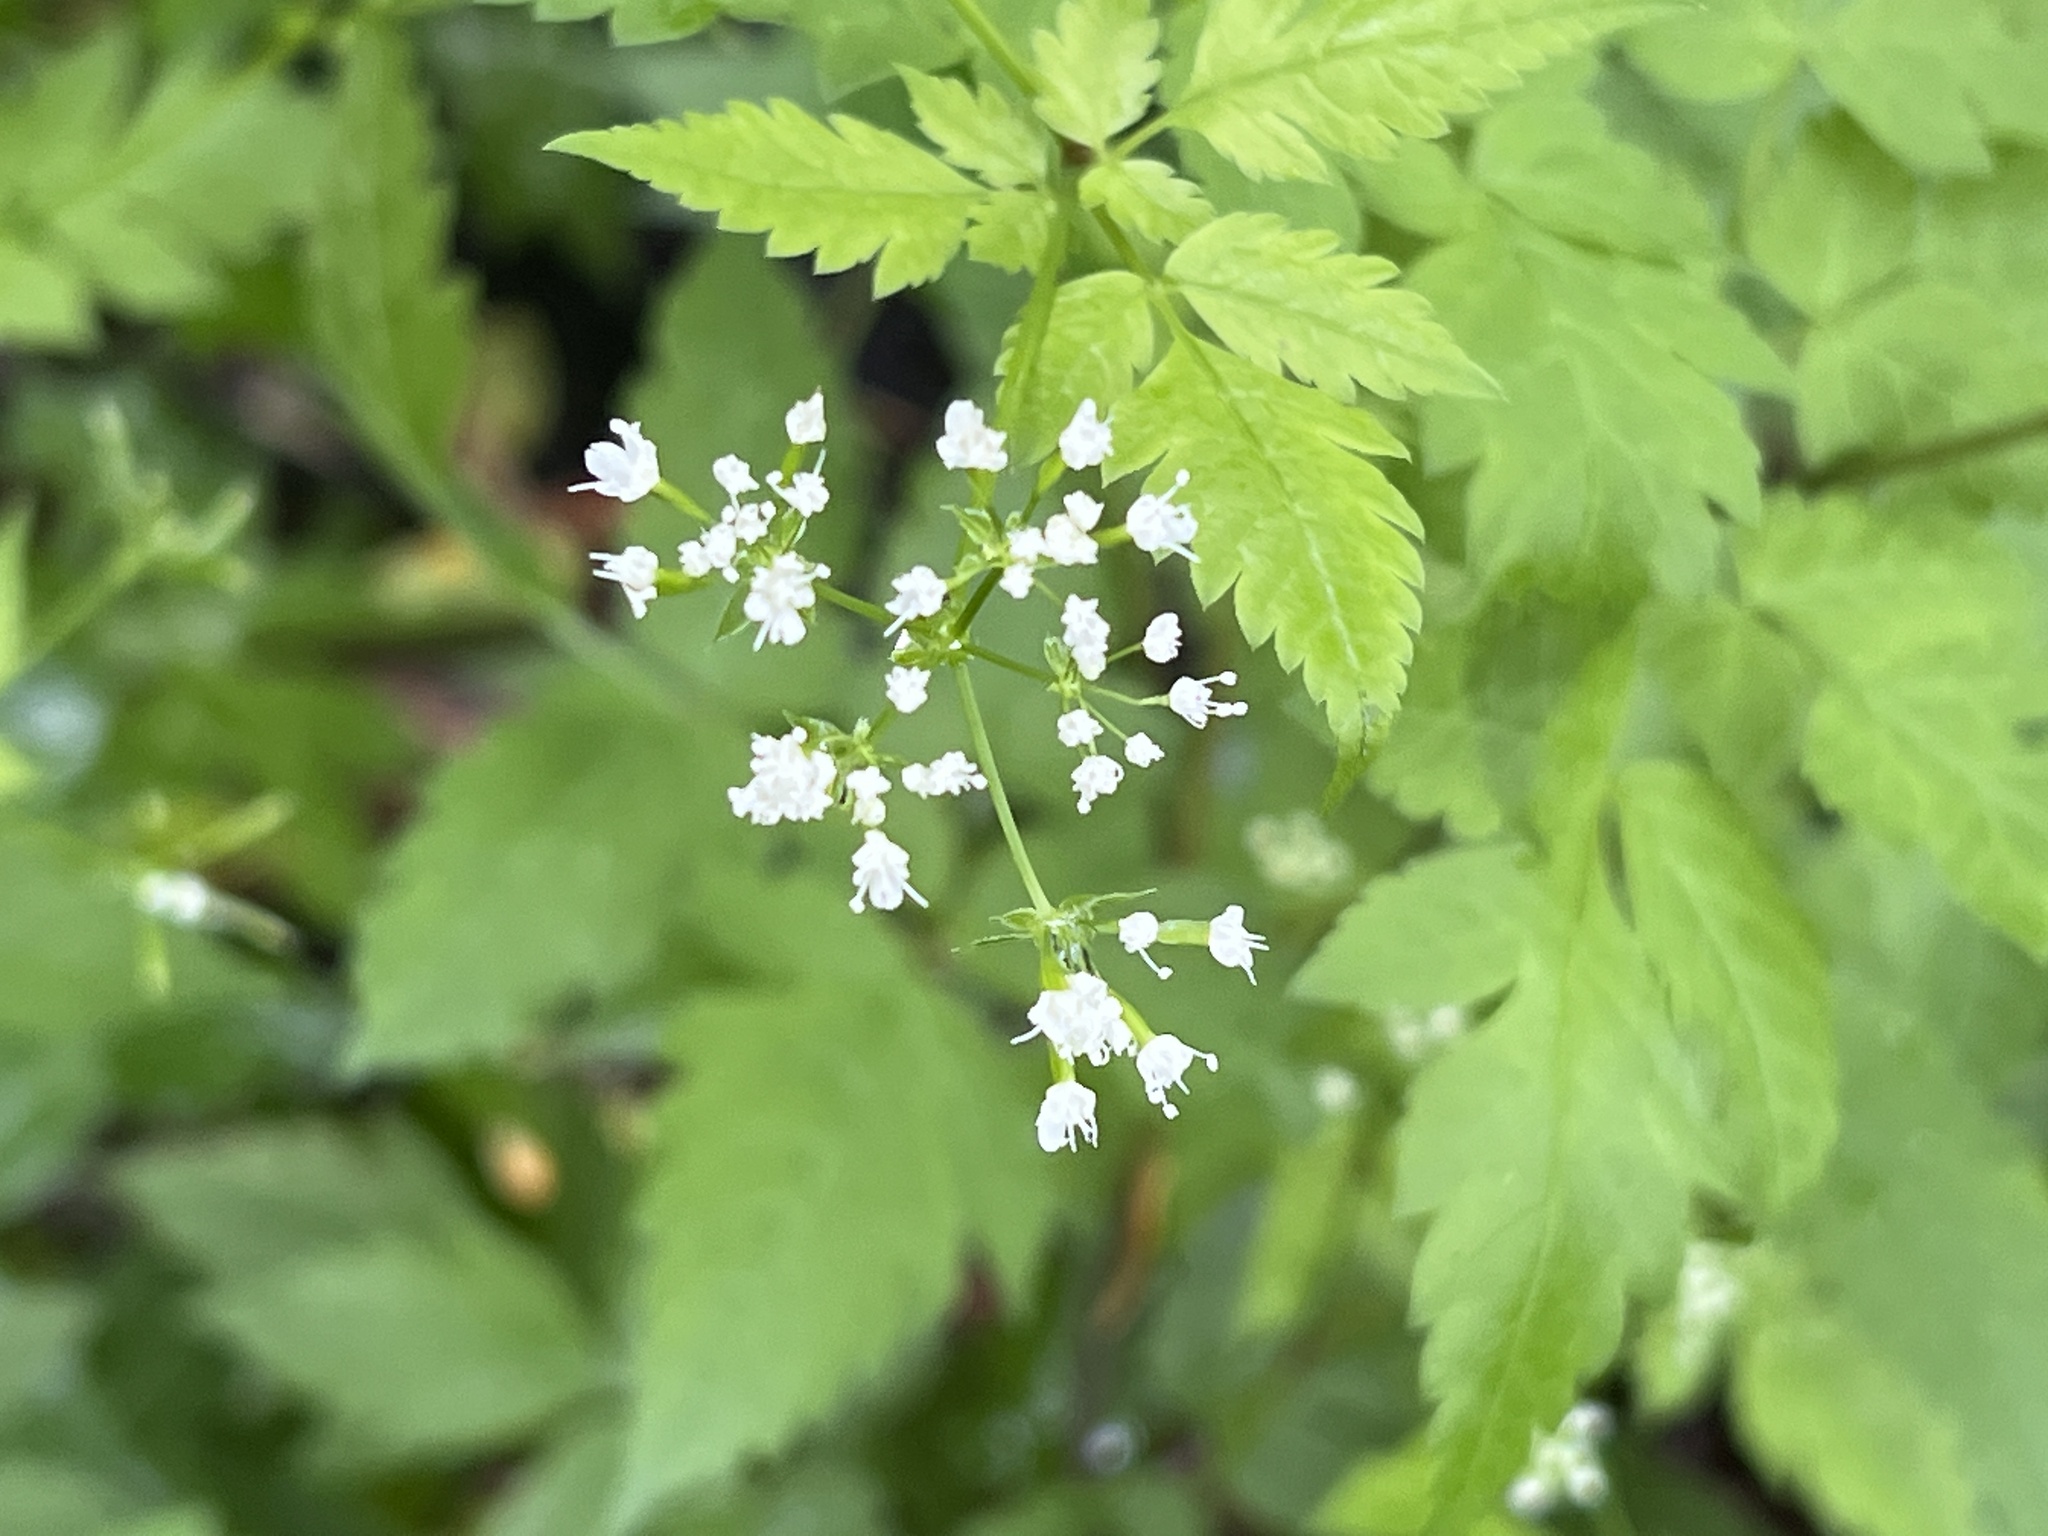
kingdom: Plantae
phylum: Tracheophyta
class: Magnoliopsida
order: Apiales
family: Apiaceae
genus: Osmorhiza
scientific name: Osmorhiza longistylis
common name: Smooth sweet cicely
